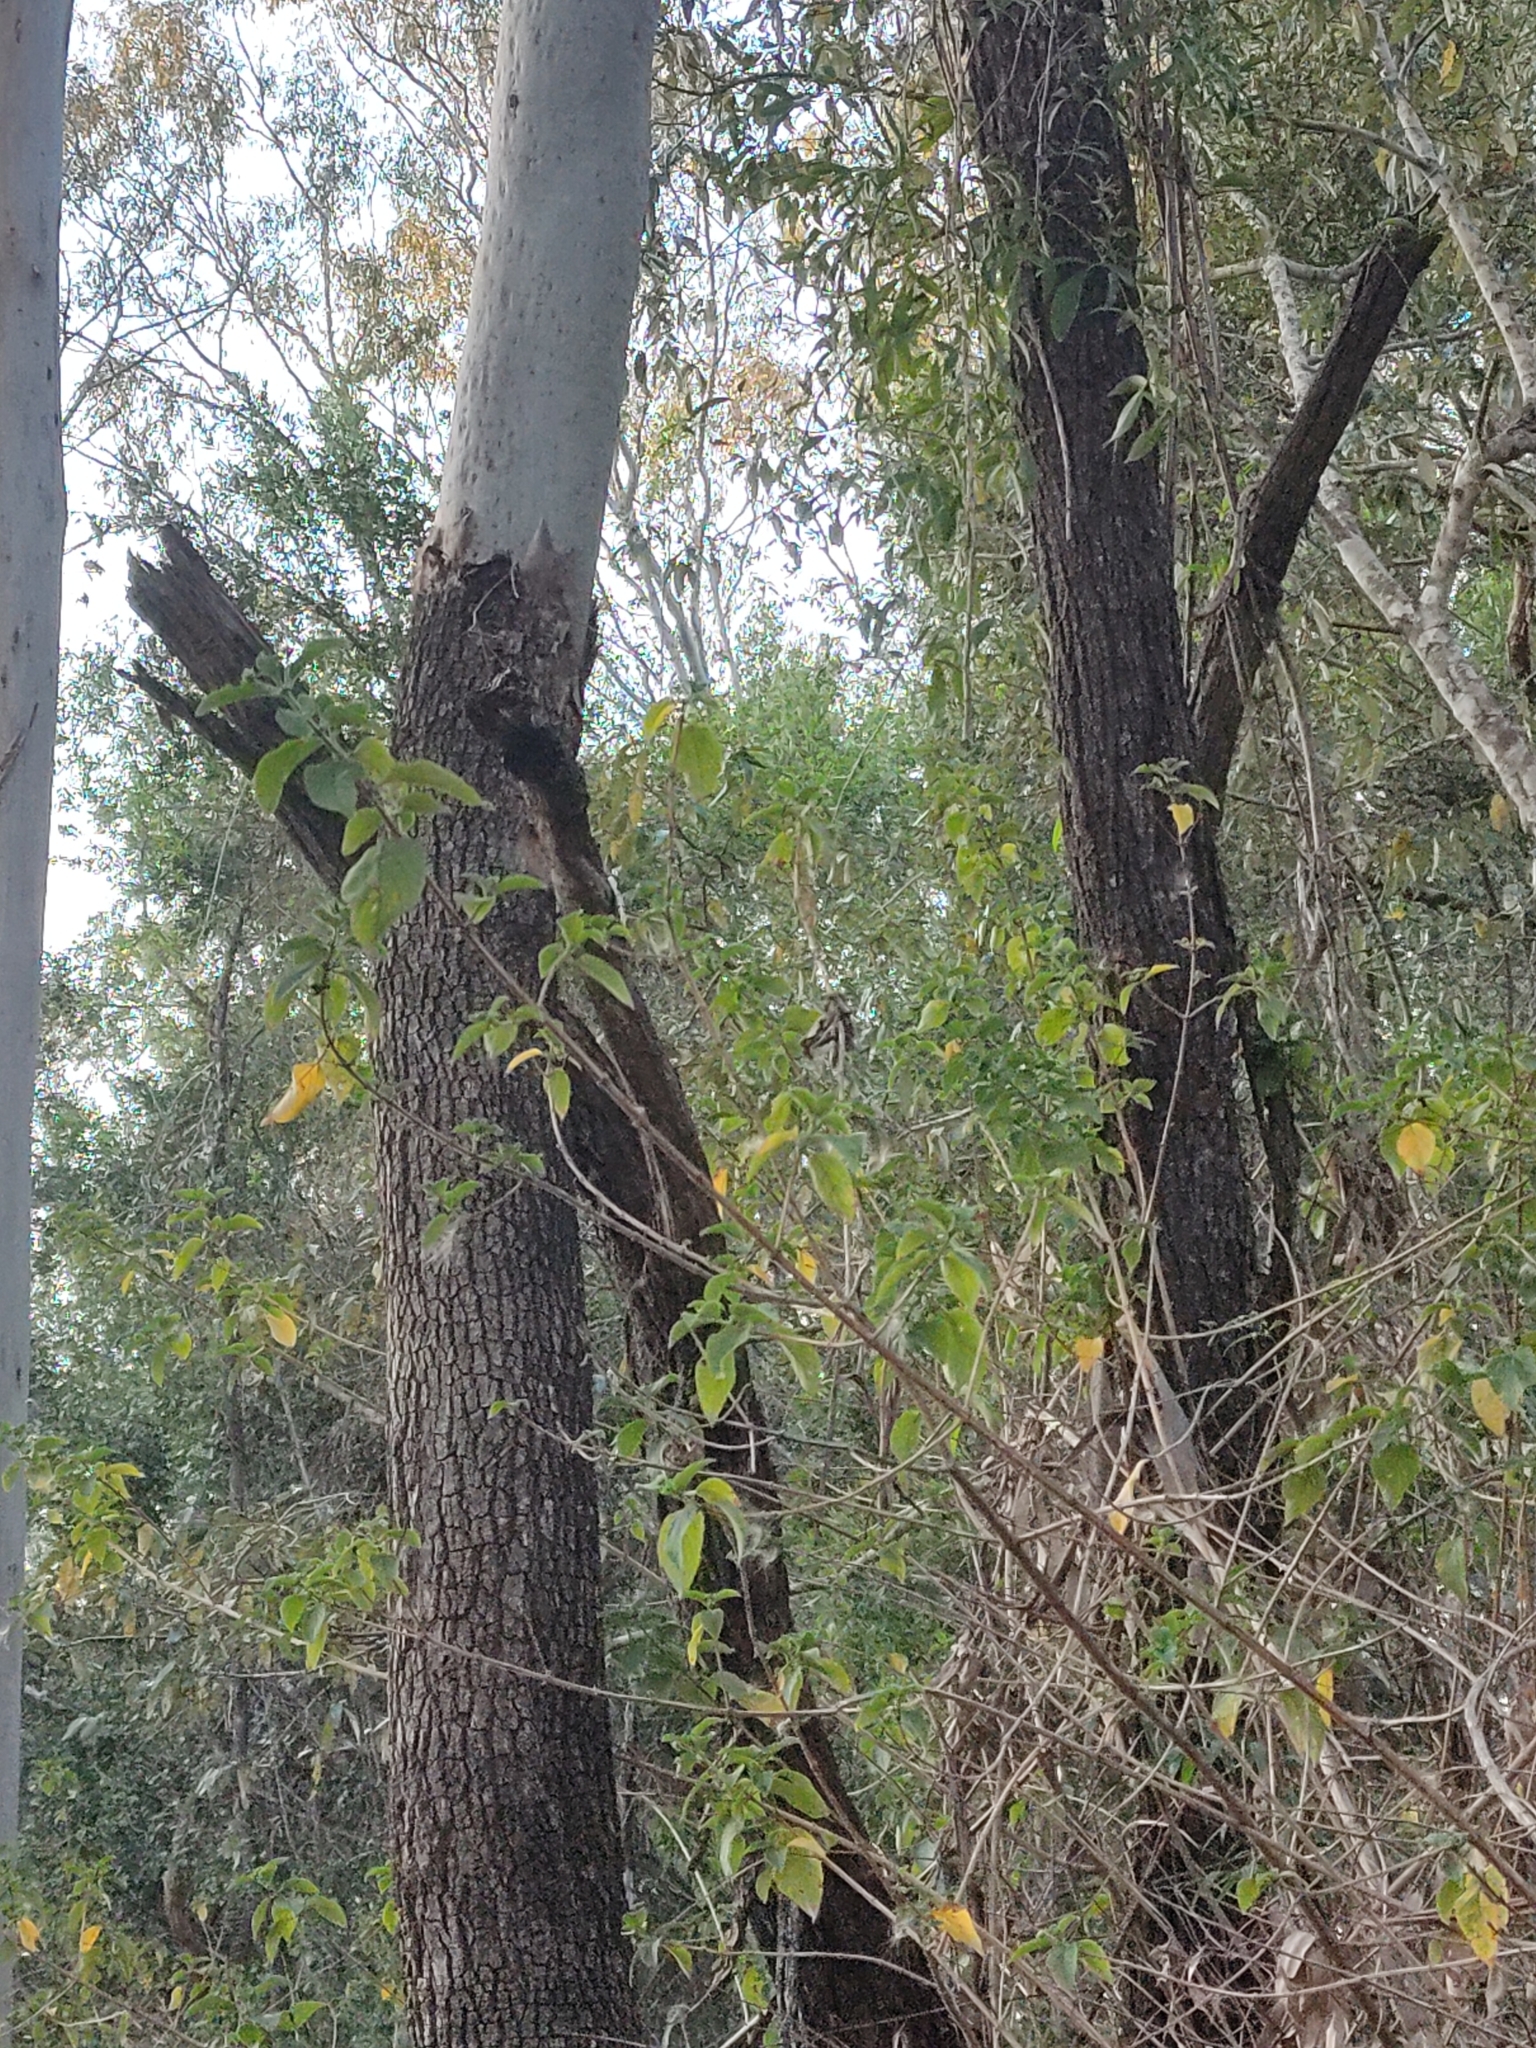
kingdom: Plantae
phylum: Tracheophyta
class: Magnoliopsida
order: Myrtales
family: Myrtaceae
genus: Corymbia
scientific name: Corymbia tessellaris
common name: Carbeen
